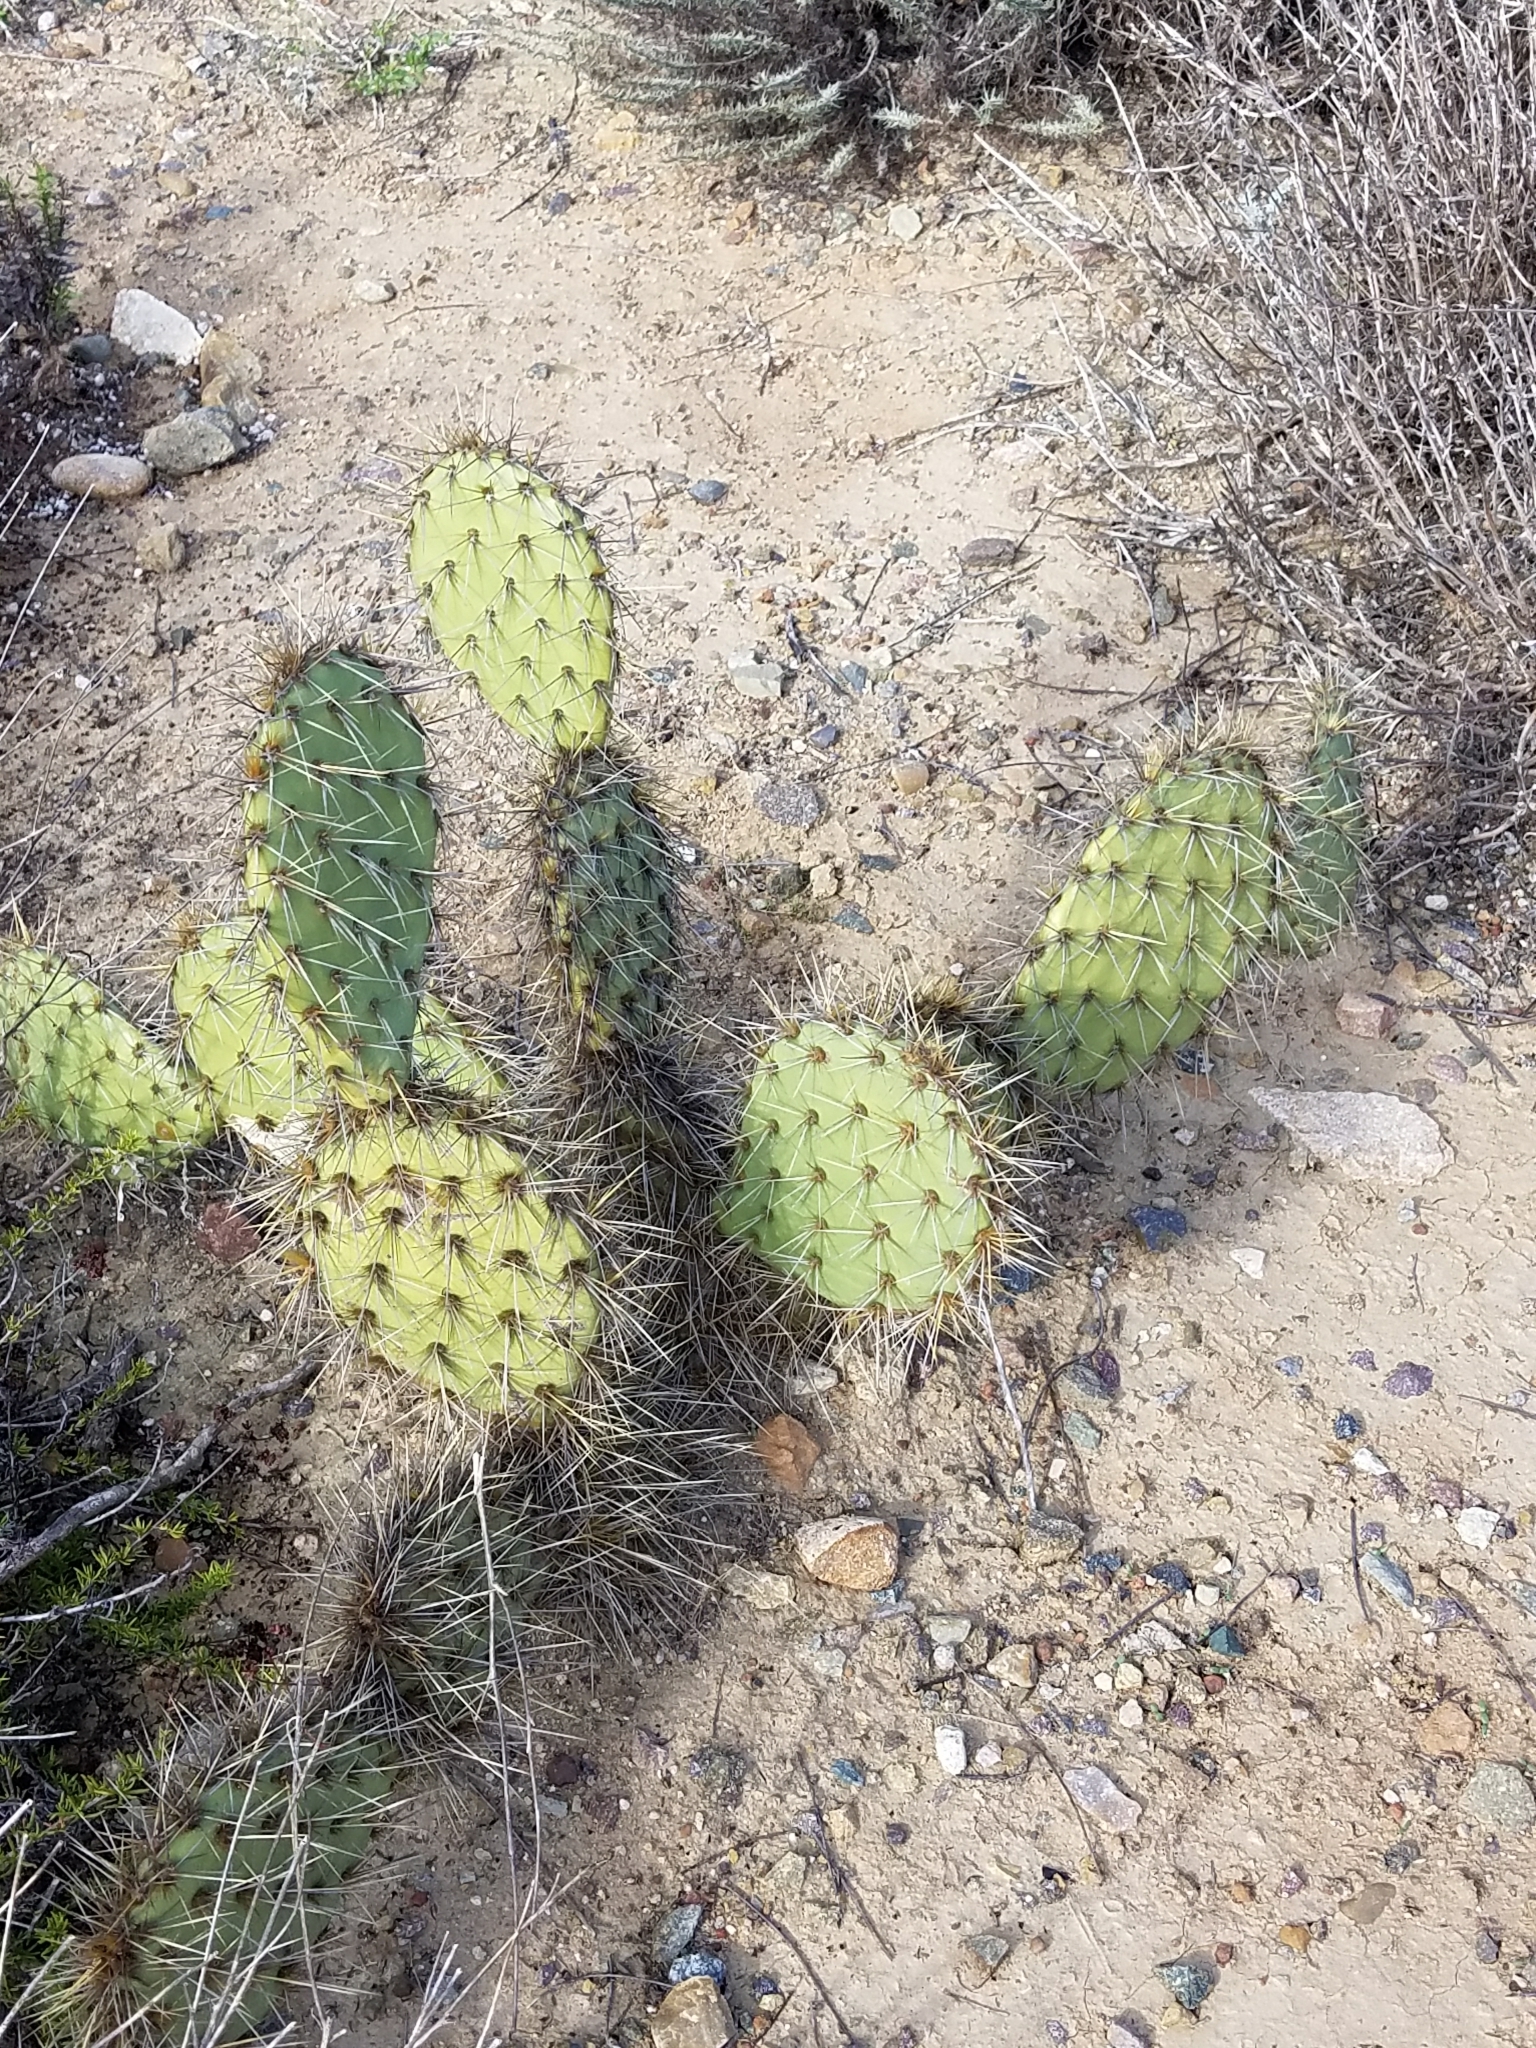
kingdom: Plantae
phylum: Tracheophyta
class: Magnoliopsida
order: Caryophyllales
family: Cactaceae
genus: Opuntia
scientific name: Opuntia littoralis
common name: Coastal prickly-pear
